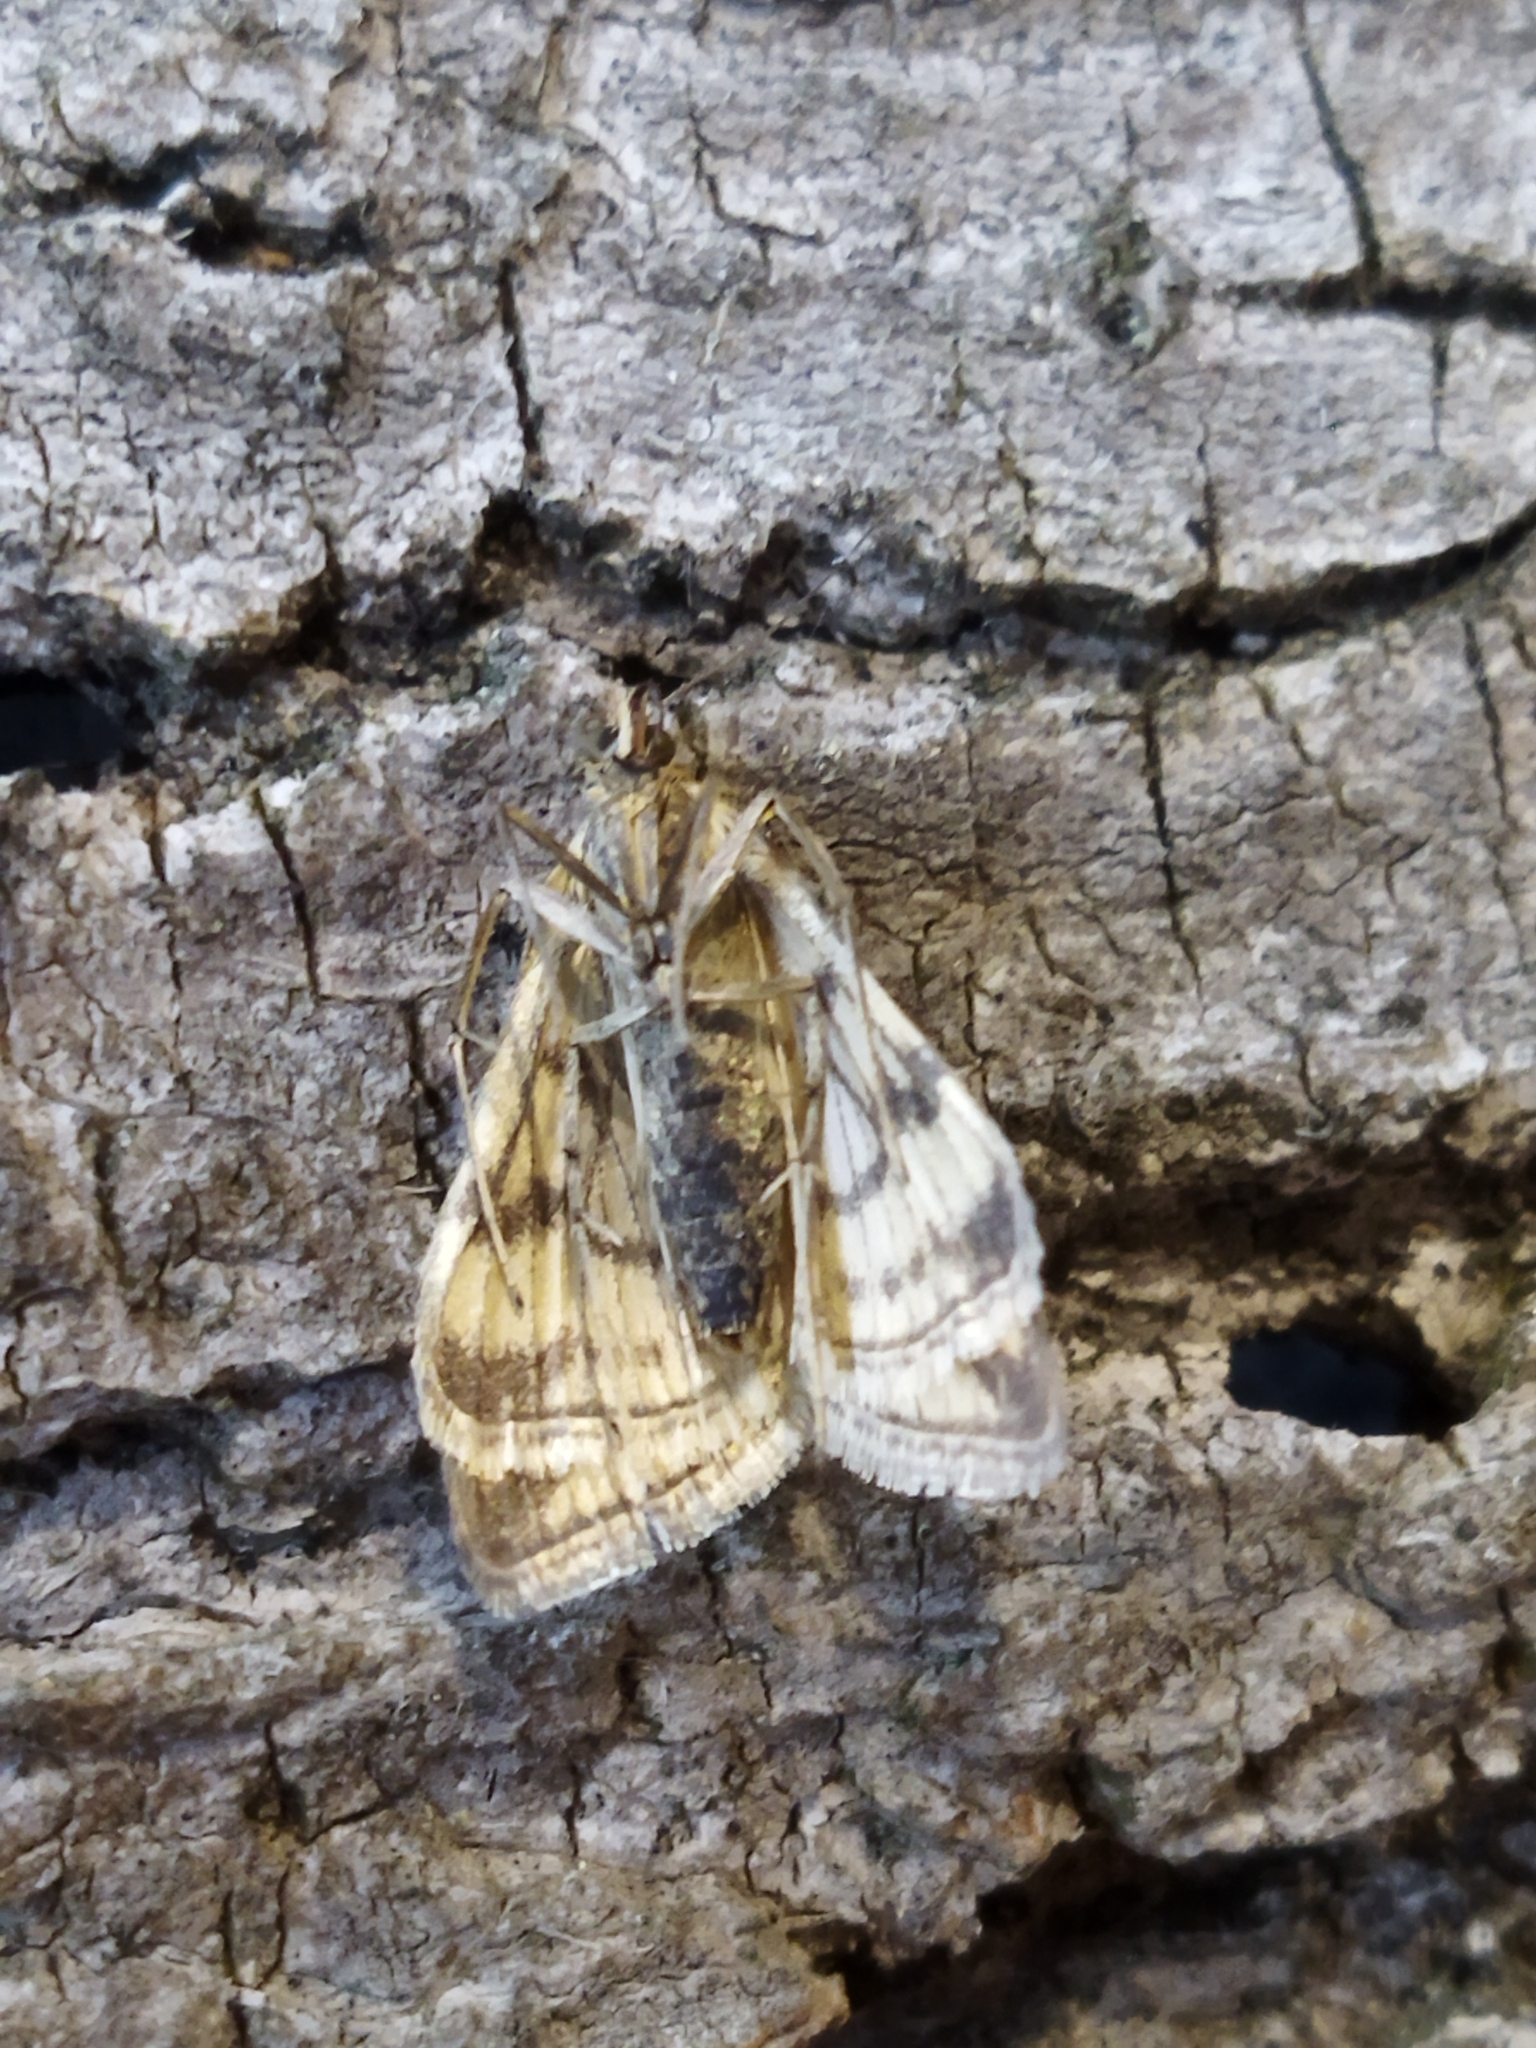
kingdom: Animalia
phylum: Arthropoda
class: Insecta
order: Lepidoptera
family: Crambidae
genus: Sitochroa
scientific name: Sitochroa verticalis
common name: Lesser pearl
